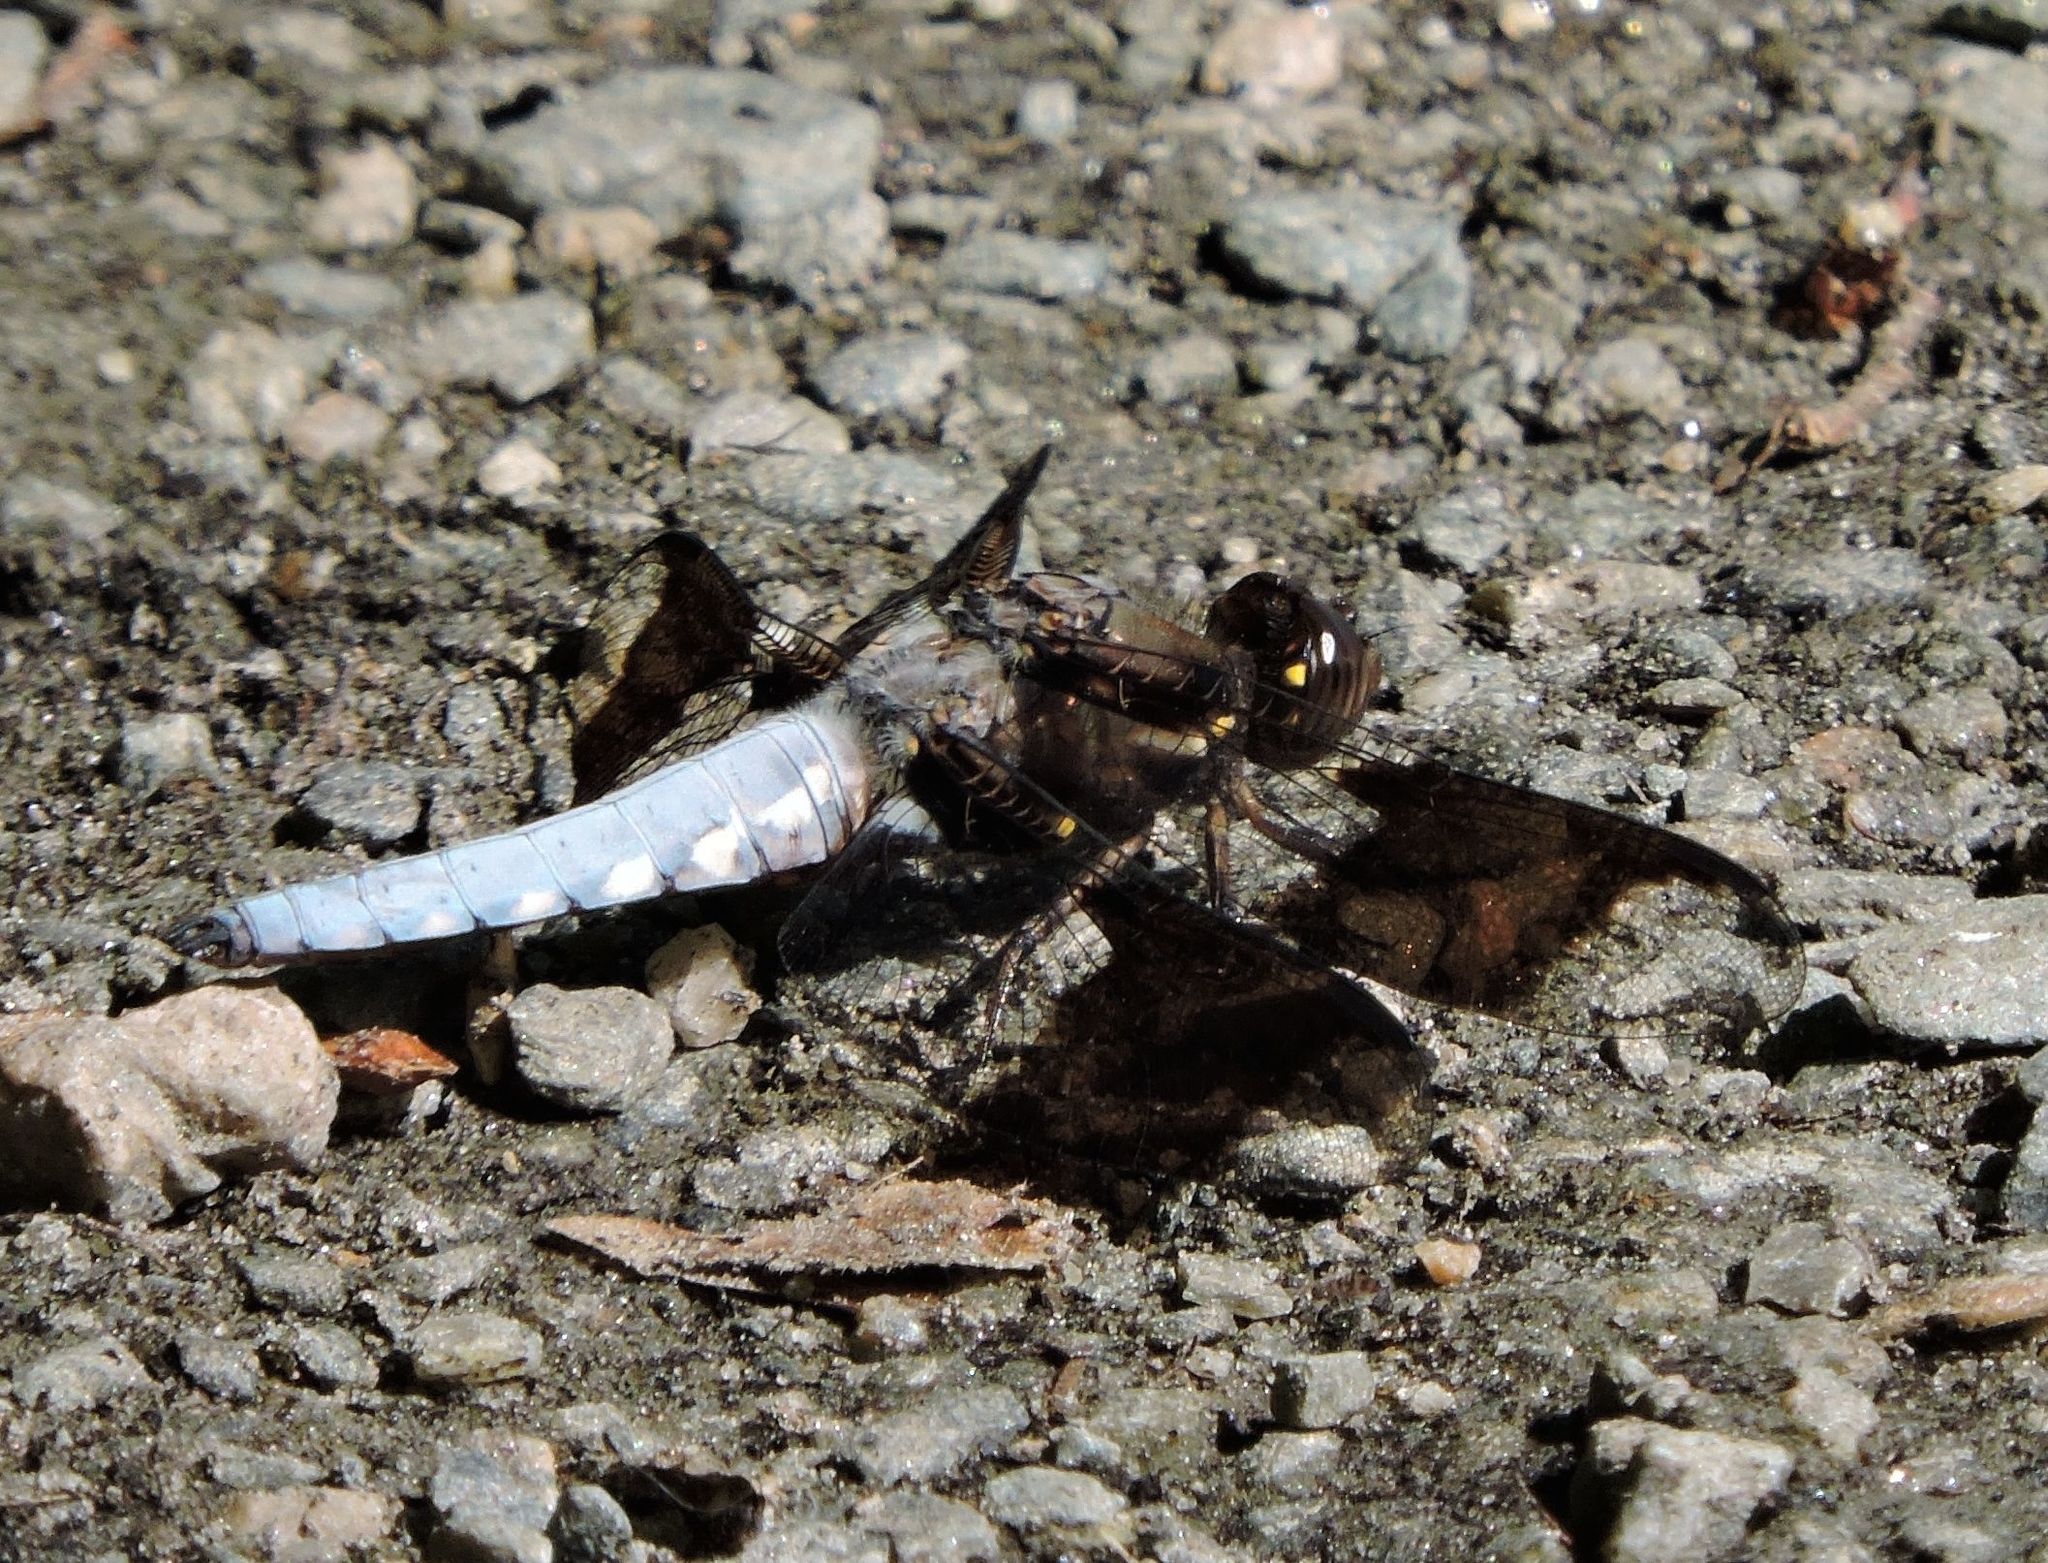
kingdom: Animalia
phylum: Arthropoda
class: Insecta
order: Odonata
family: Libellulidae
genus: Plathemis
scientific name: Plathemis lydia
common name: Common whitetail
